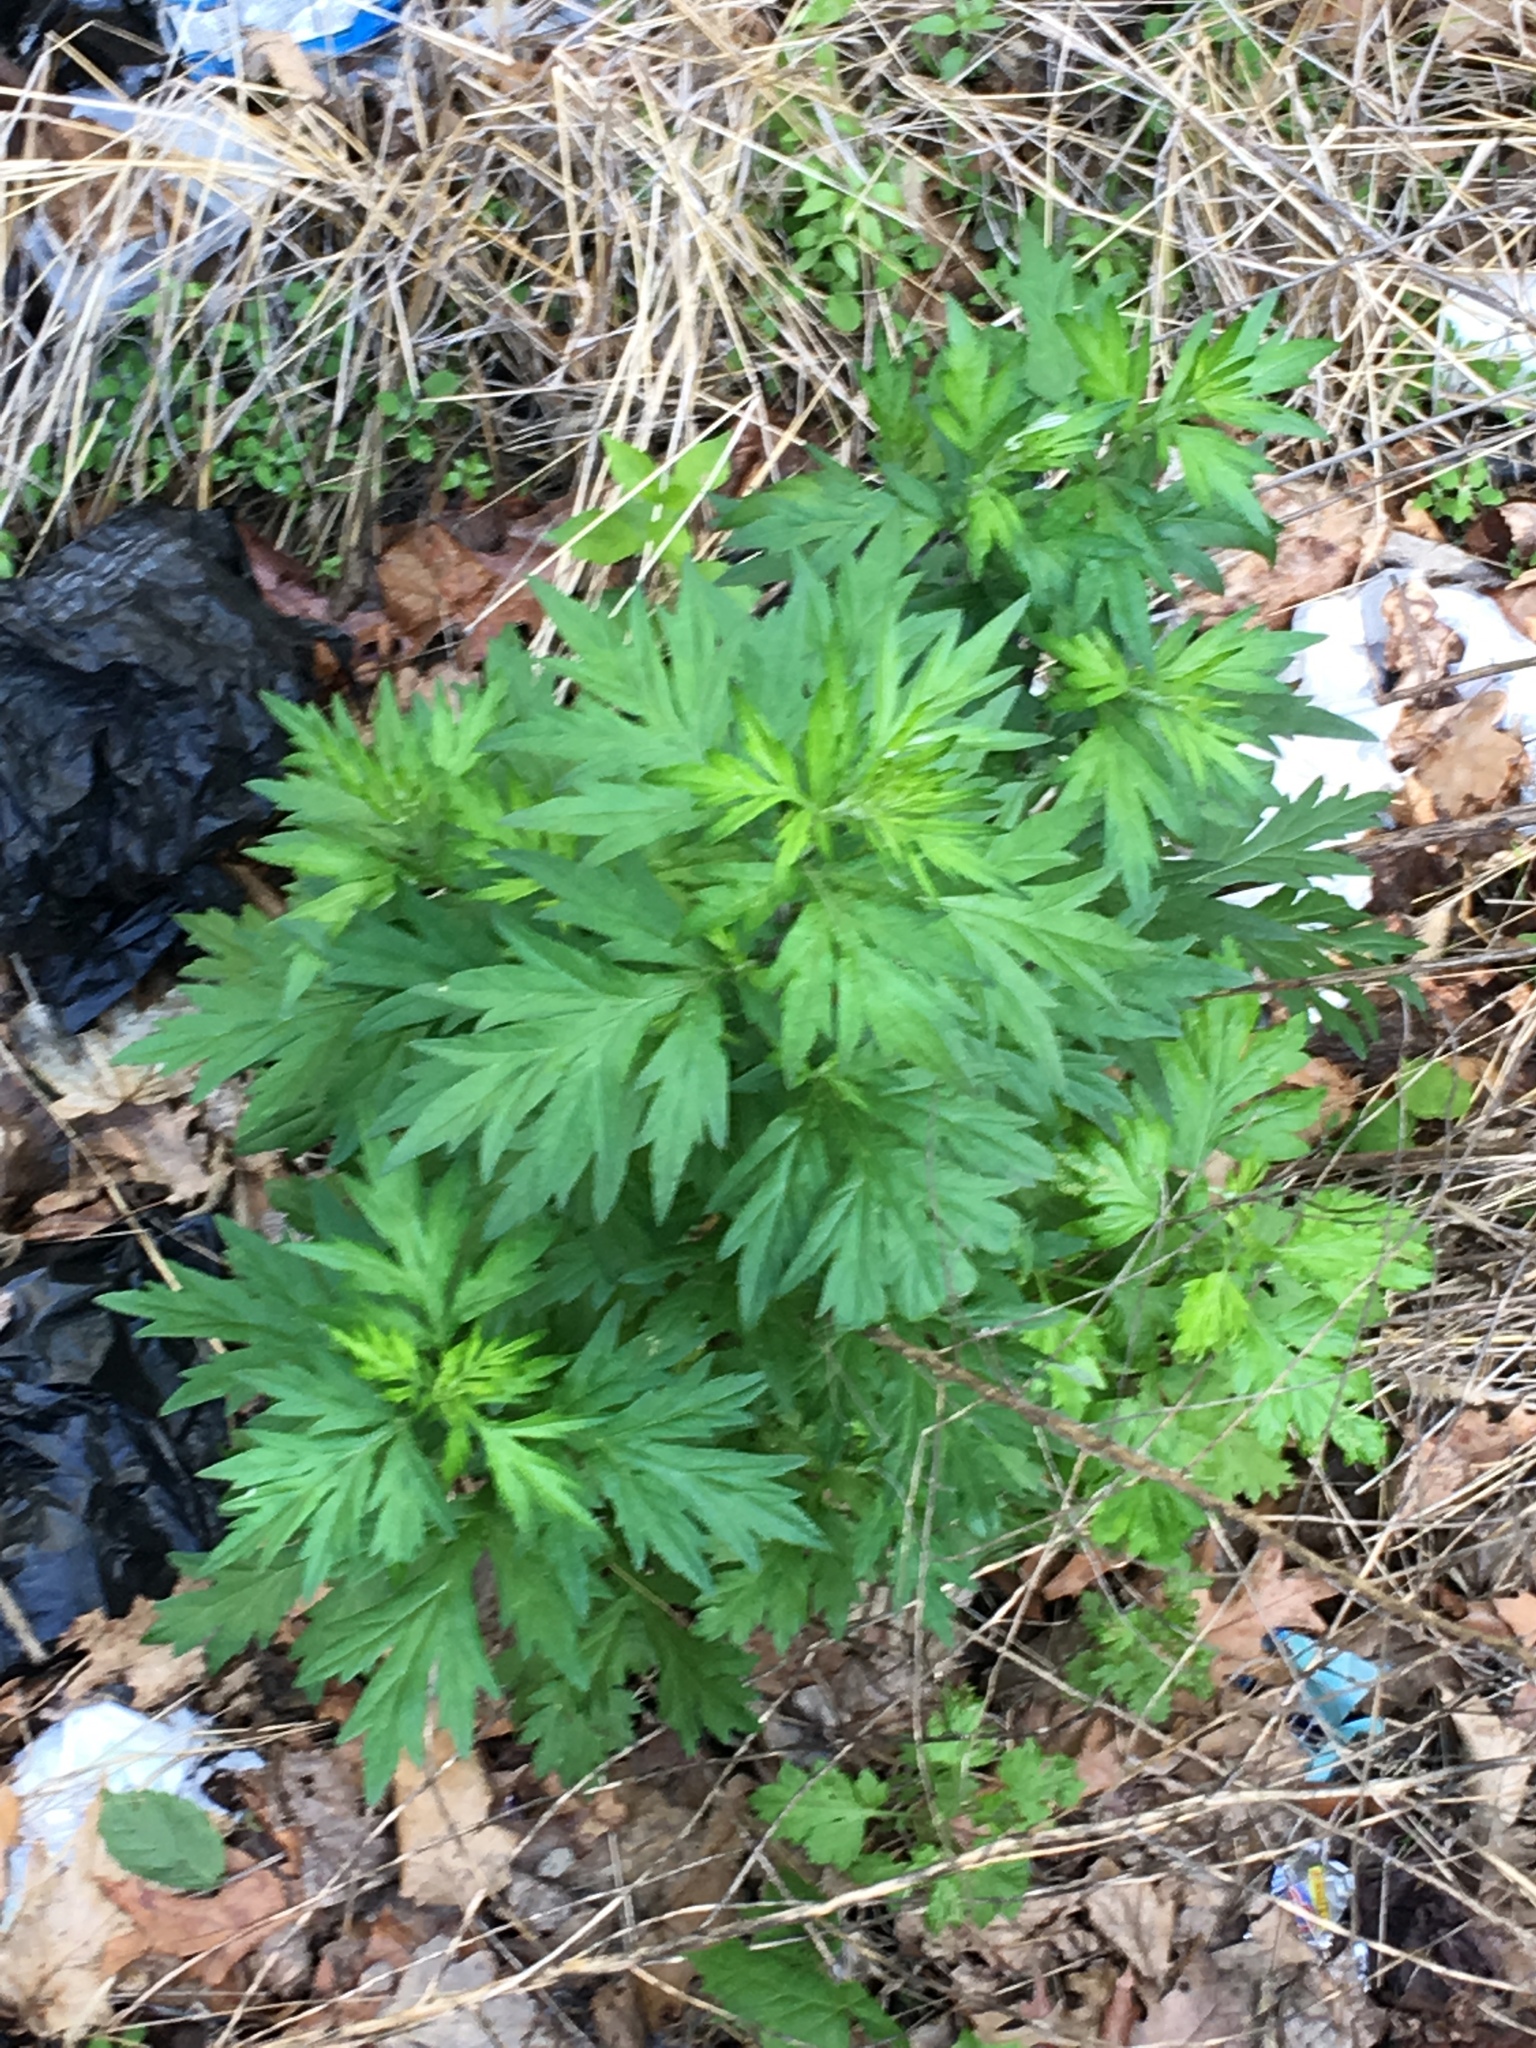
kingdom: Plantae
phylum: Tracheophyta
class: Magnoliopsida
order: Asterales
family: Asteraceae
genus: Artemisia
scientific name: Artemisia vulgaris
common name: Mugwort
